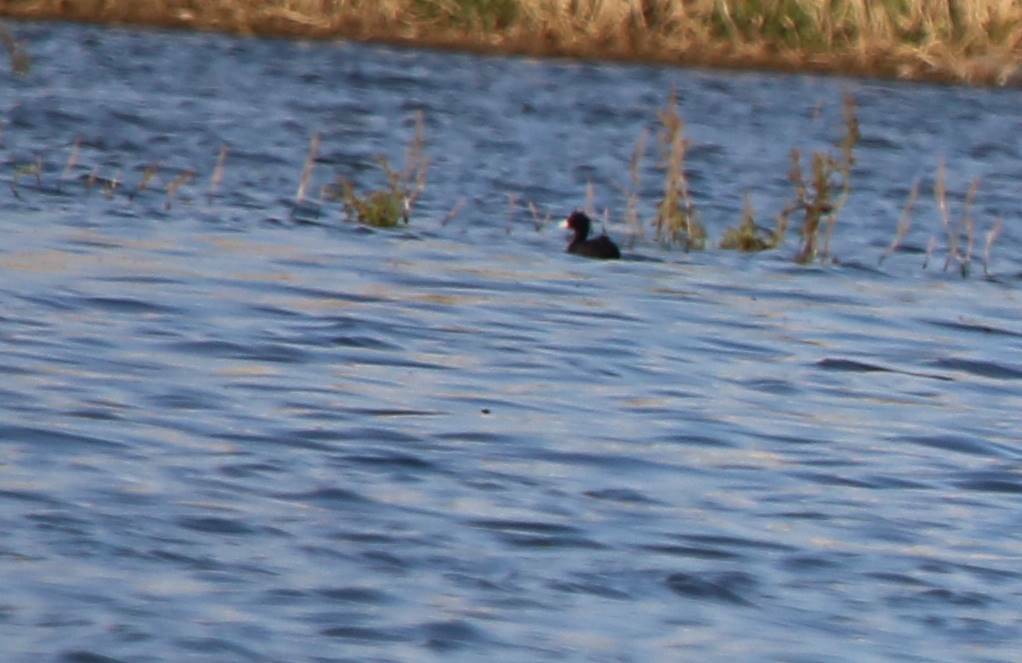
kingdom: Animalia
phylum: Chordata
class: Aves
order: Gruiformes
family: Rallidae
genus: Fulica
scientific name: Fulica atra
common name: Eurasian coot
